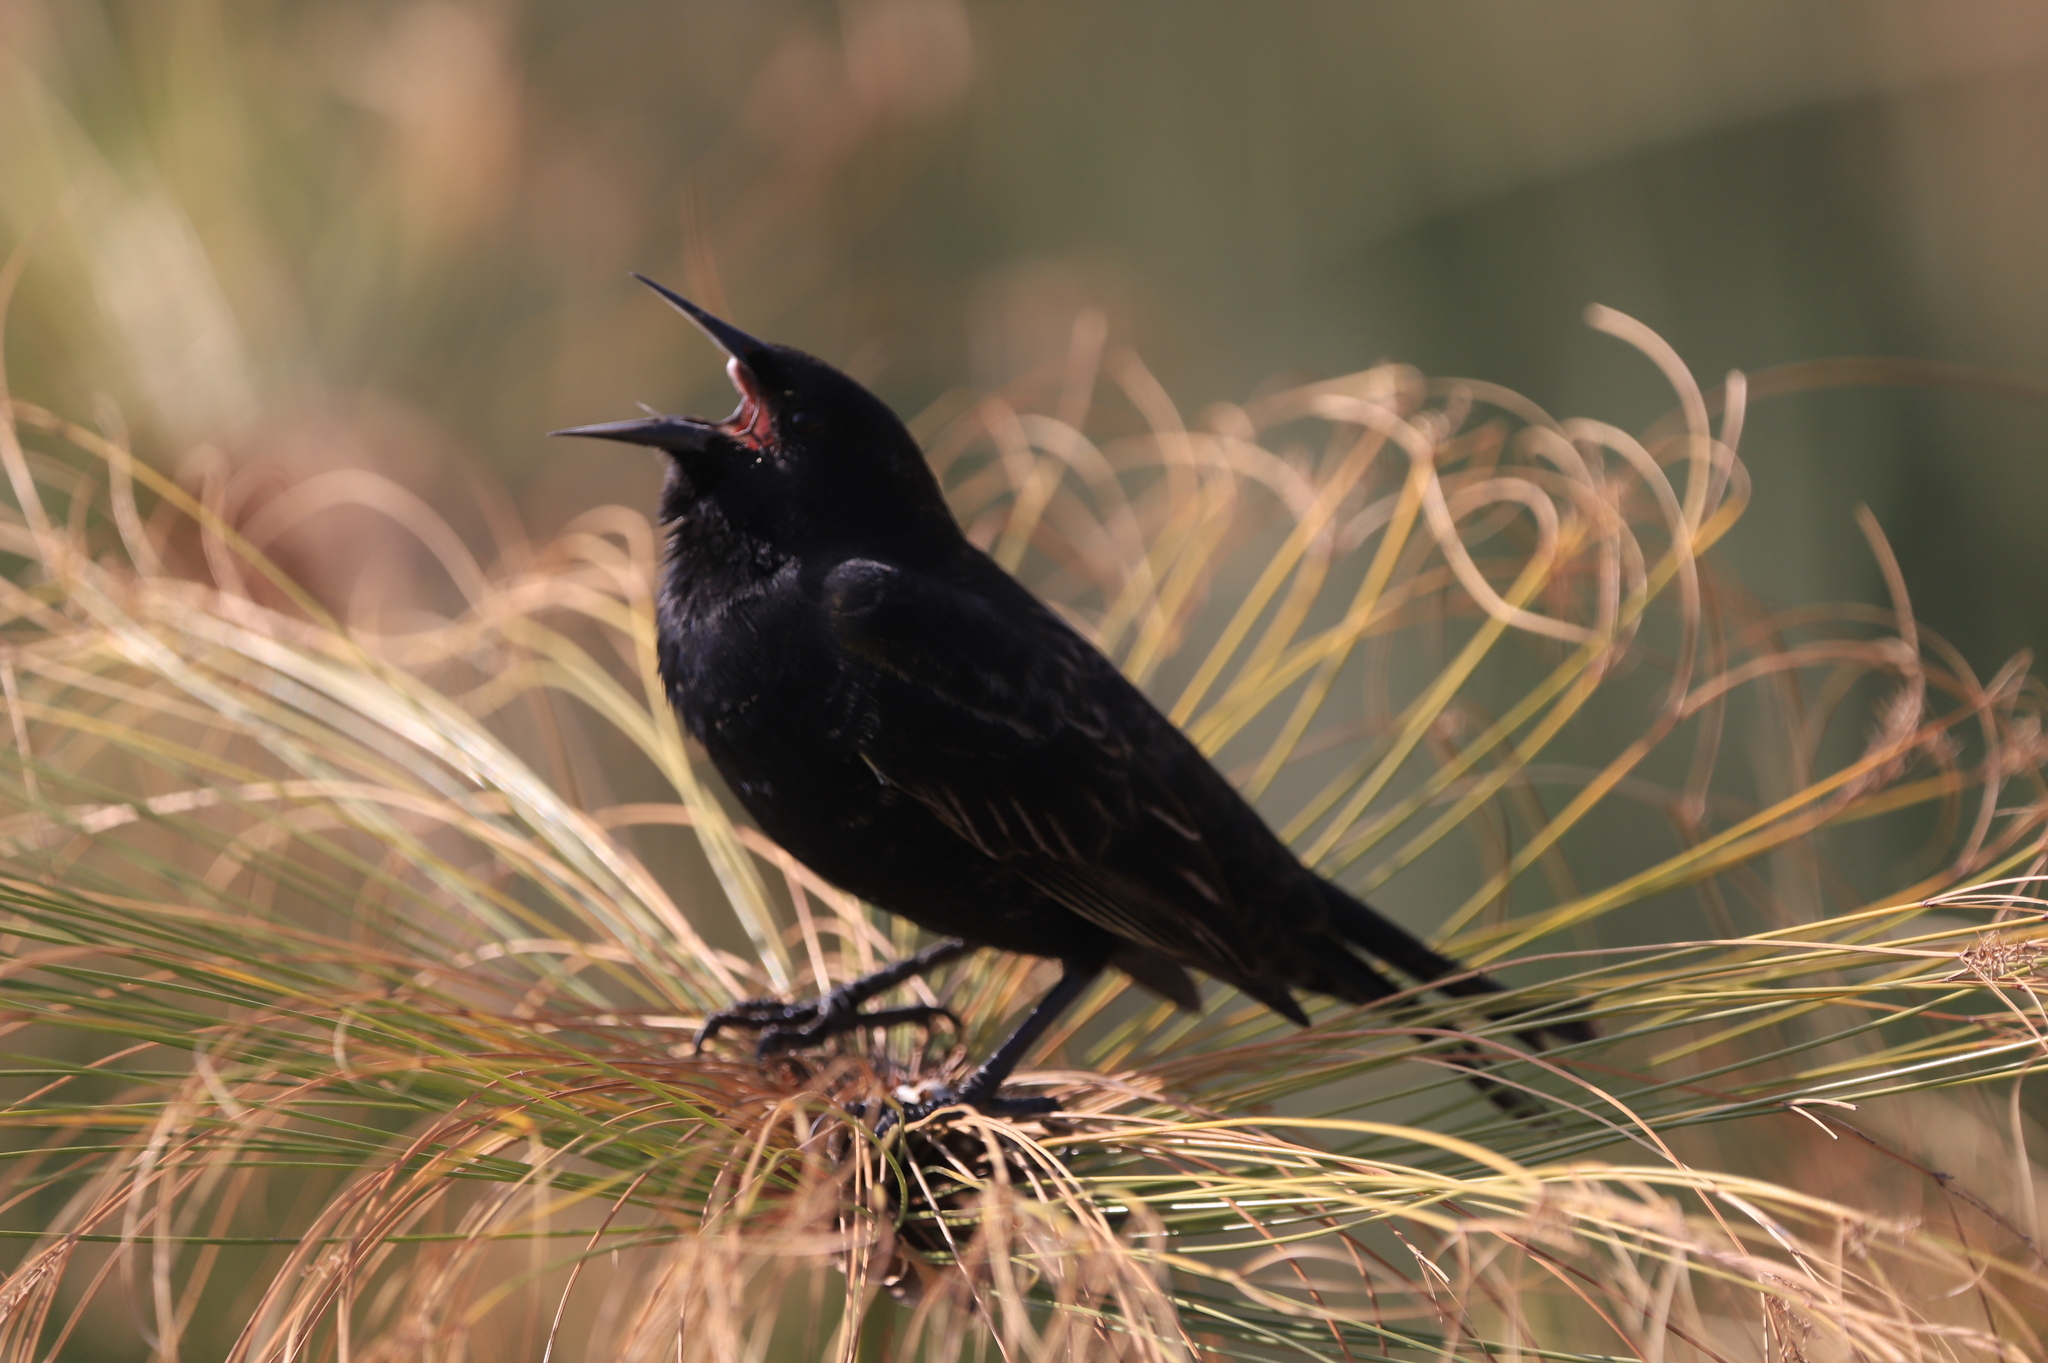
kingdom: Animalia
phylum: Chordata
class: Aves
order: Passeriformes
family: Icteridae
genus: Curaeus
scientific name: Curaeus curaeus
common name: Austral blackbird
